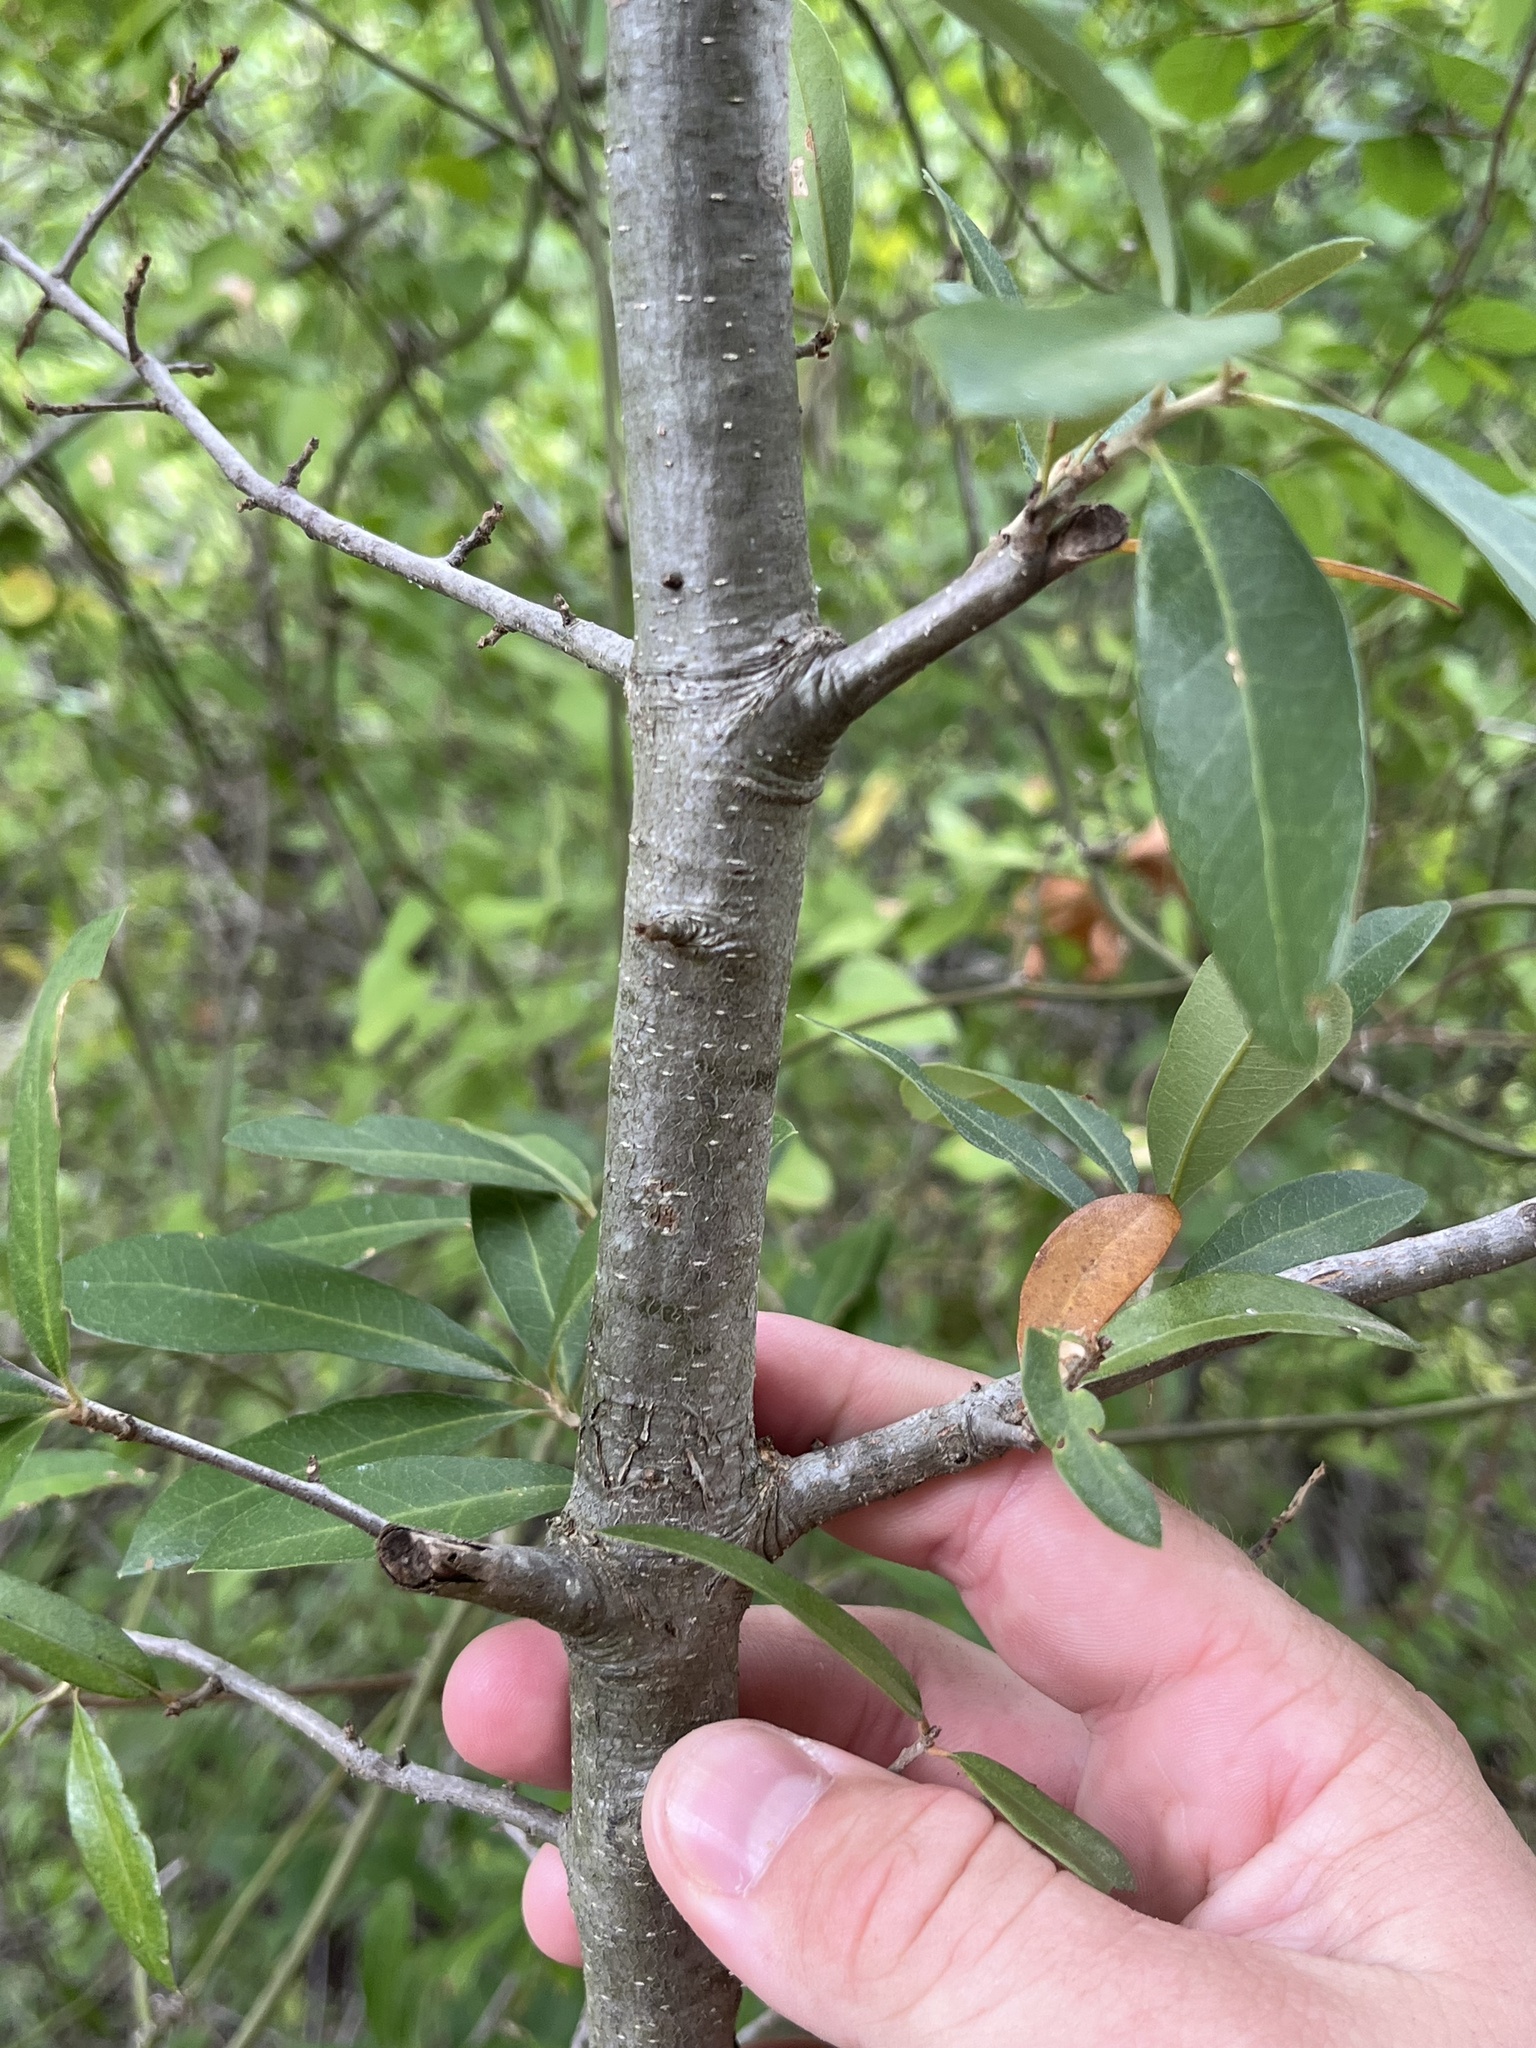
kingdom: Plantae
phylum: Tracheophyta
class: Magnoliopsida
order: Fagales
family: Fagaceae
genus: Quercus
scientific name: Quercus fusiformis
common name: Texas live oak
